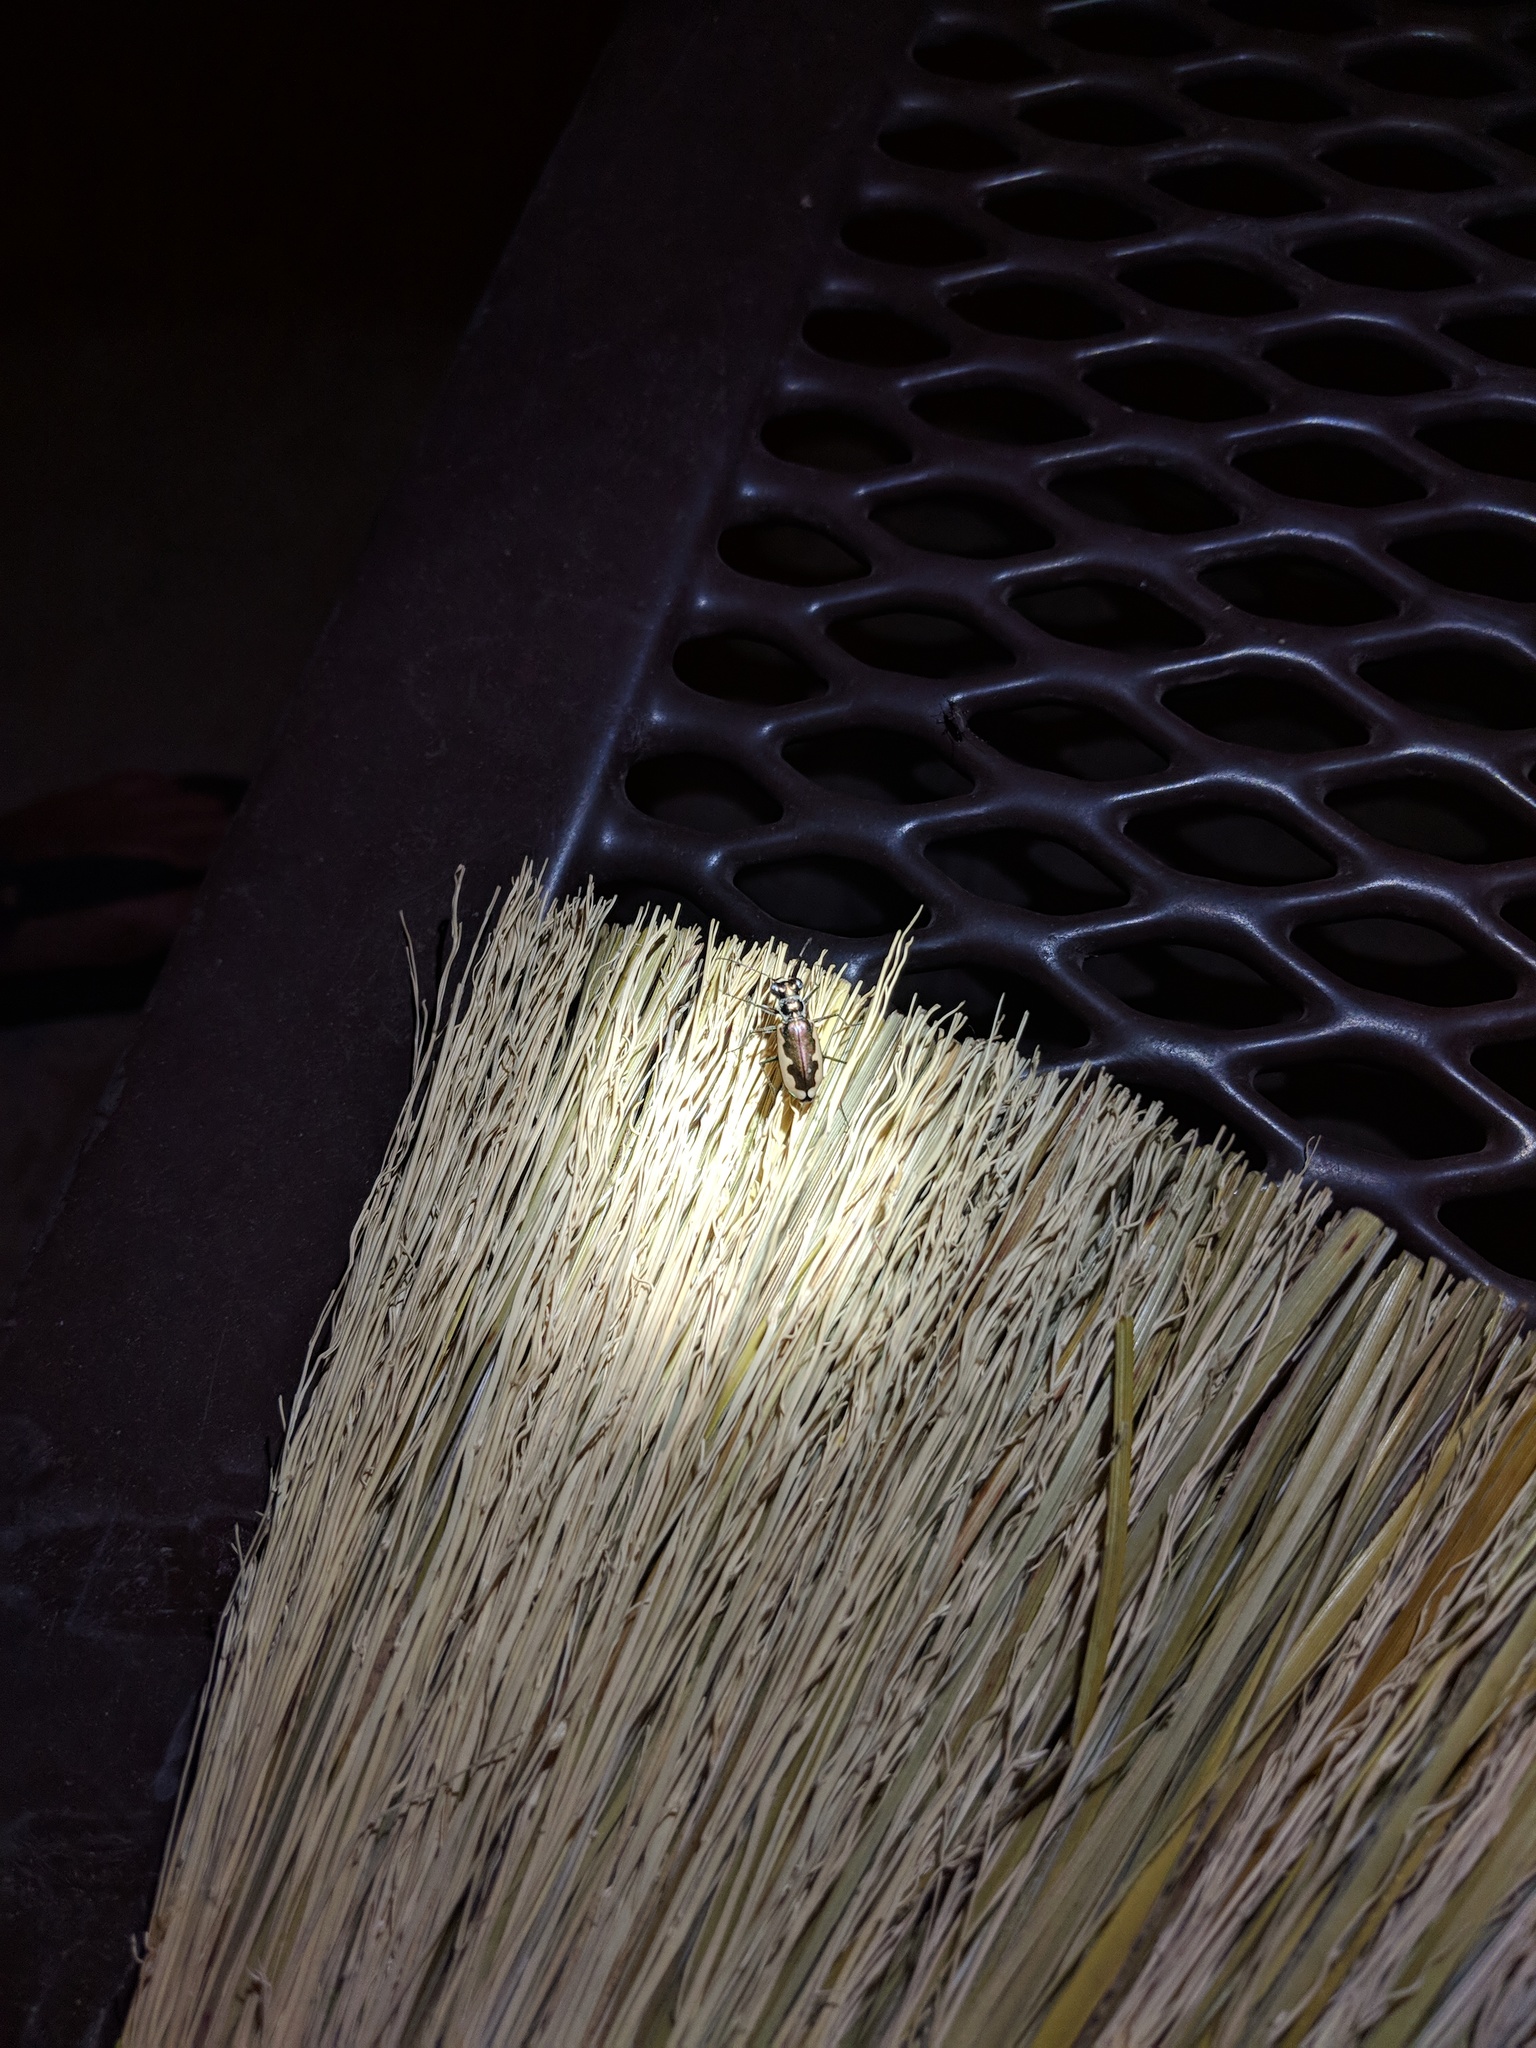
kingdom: Animalia
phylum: Arthropoda
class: Insecta
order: Coleoptera
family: Carabidae
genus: Eunota
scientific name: Eunota circumpicta
